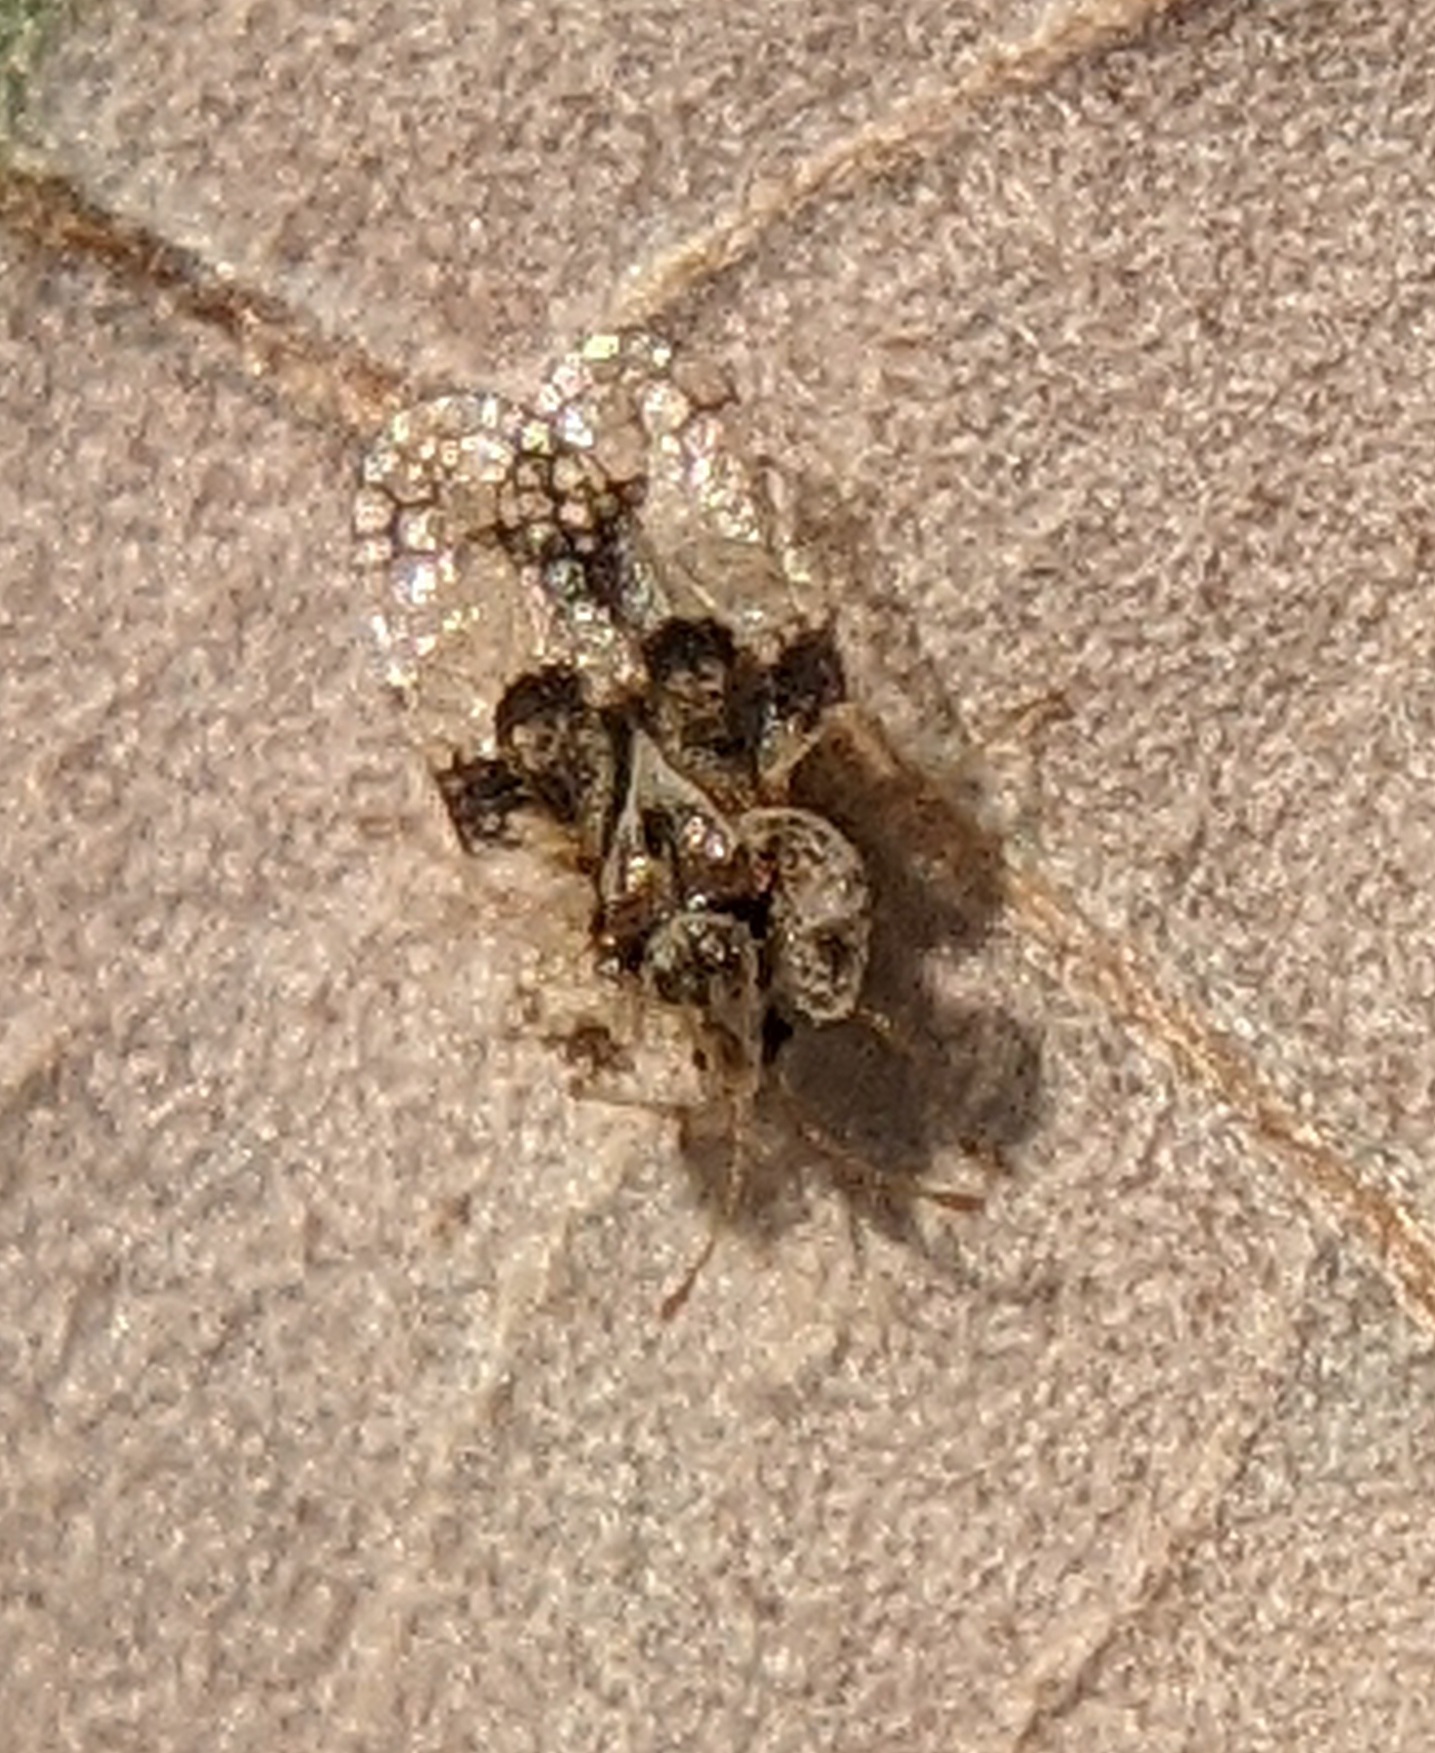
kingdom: Animalia
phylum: Arthropoda
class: Insecta
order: Hemiptera
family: Tingidae
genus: Corythucha
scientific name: Corythucha arcuata
